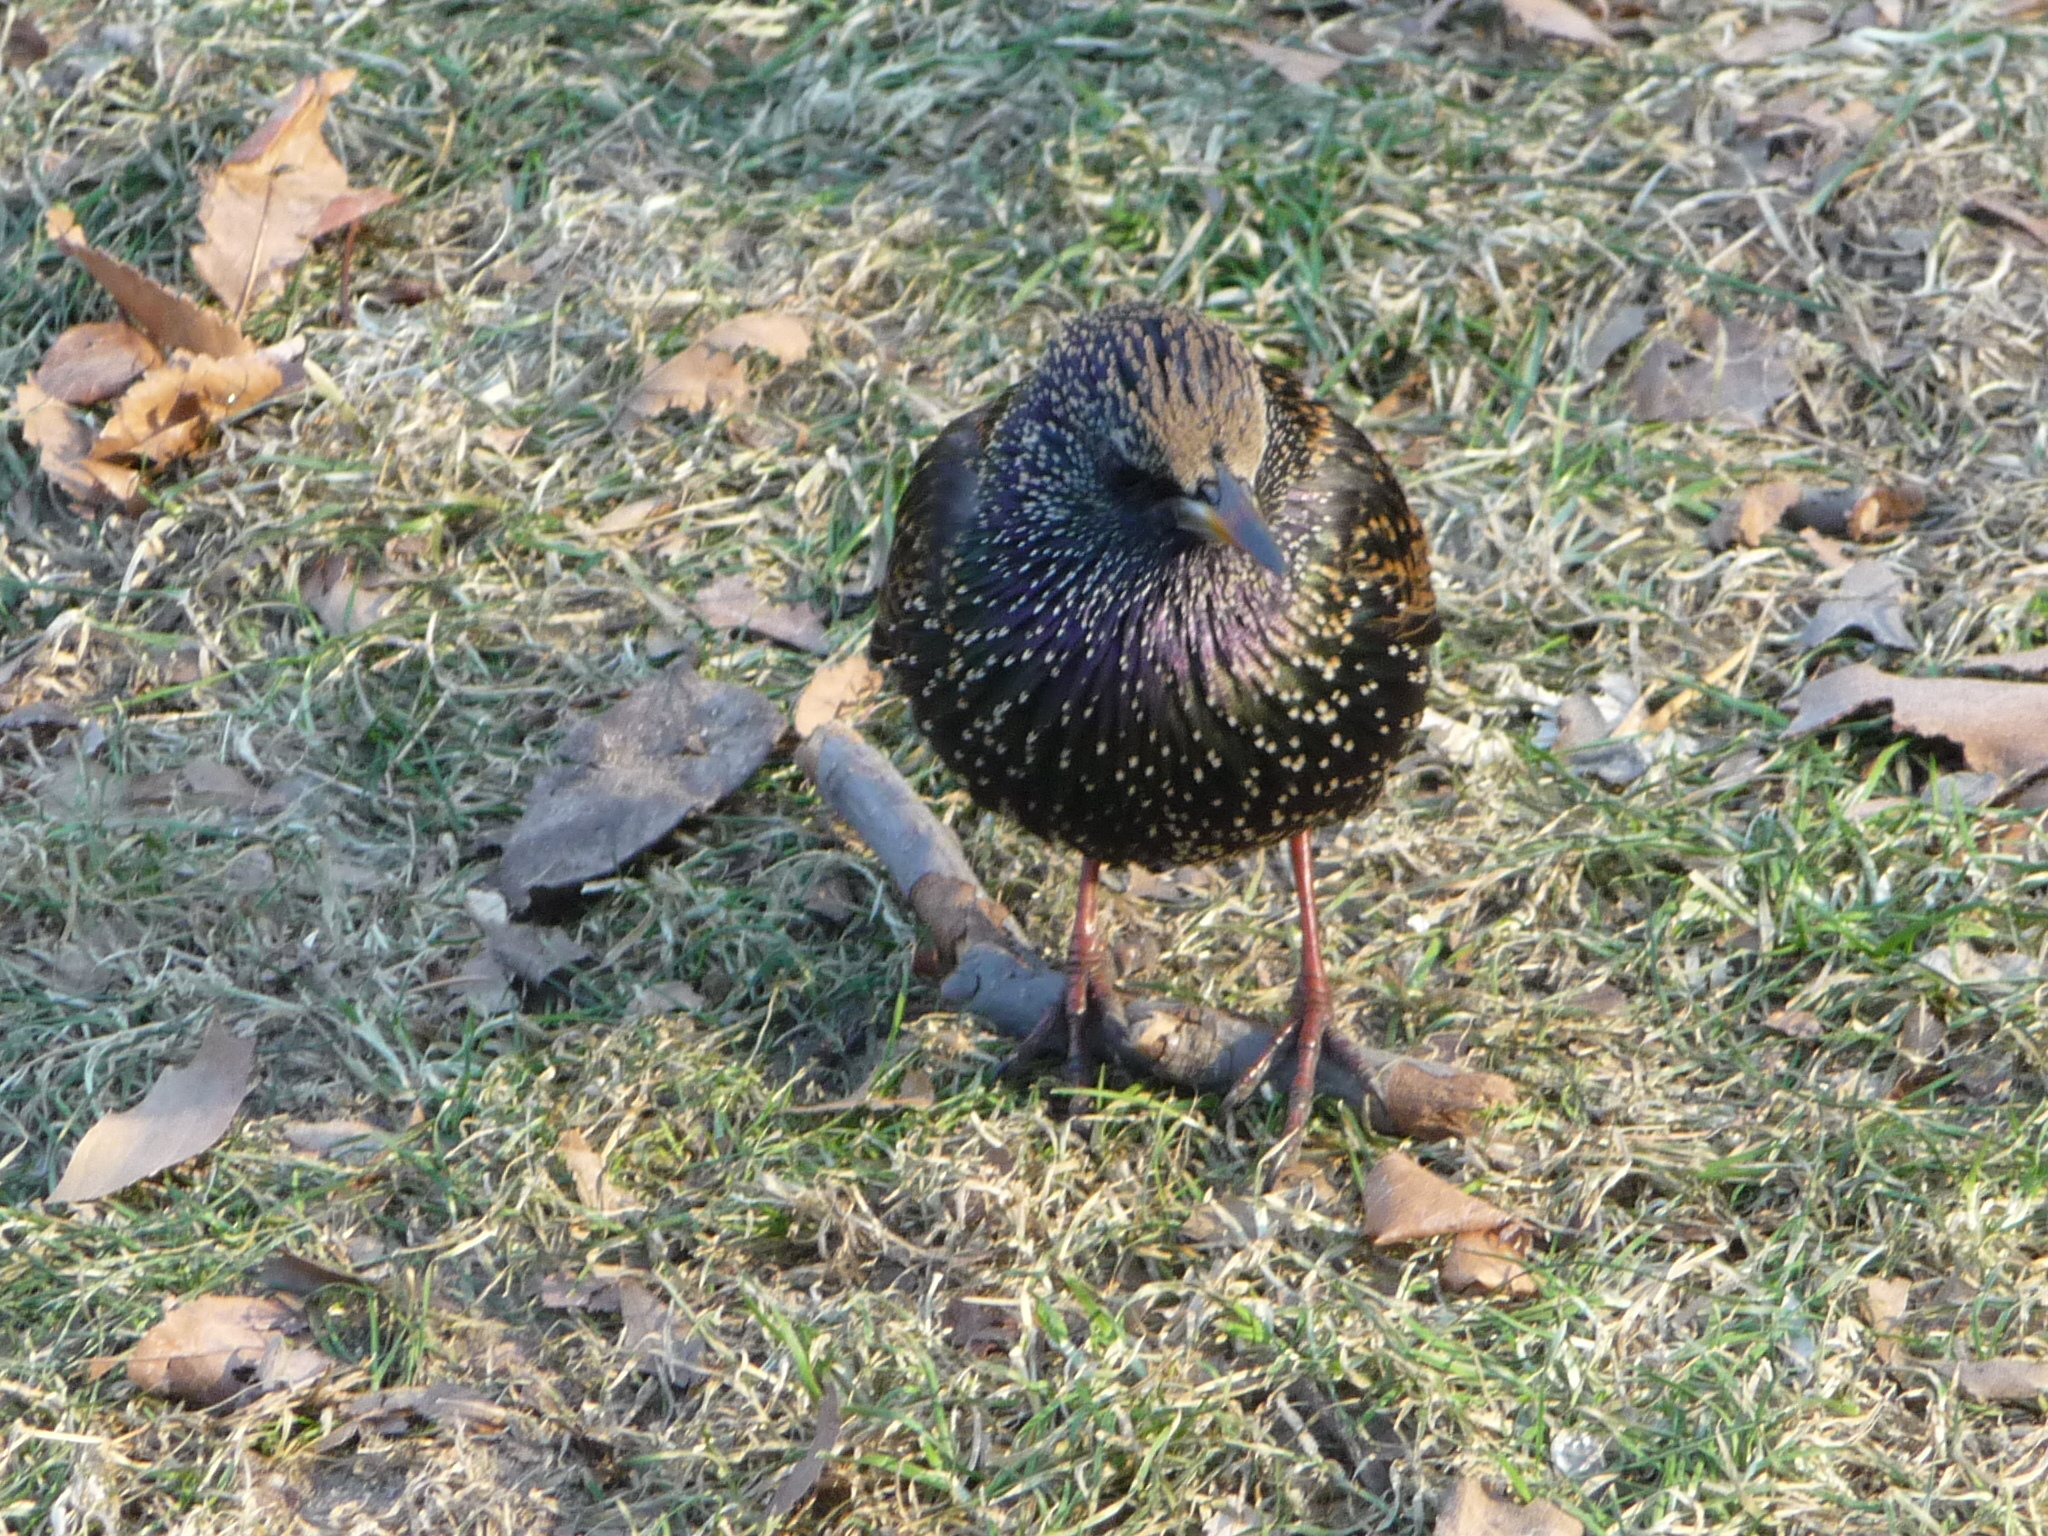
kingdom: Animalia
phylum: Chordata
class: Aves
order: Passeriformes
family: Sturnidae
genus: Sturnus
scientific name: Sturnus vulgaris
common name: Common starling
